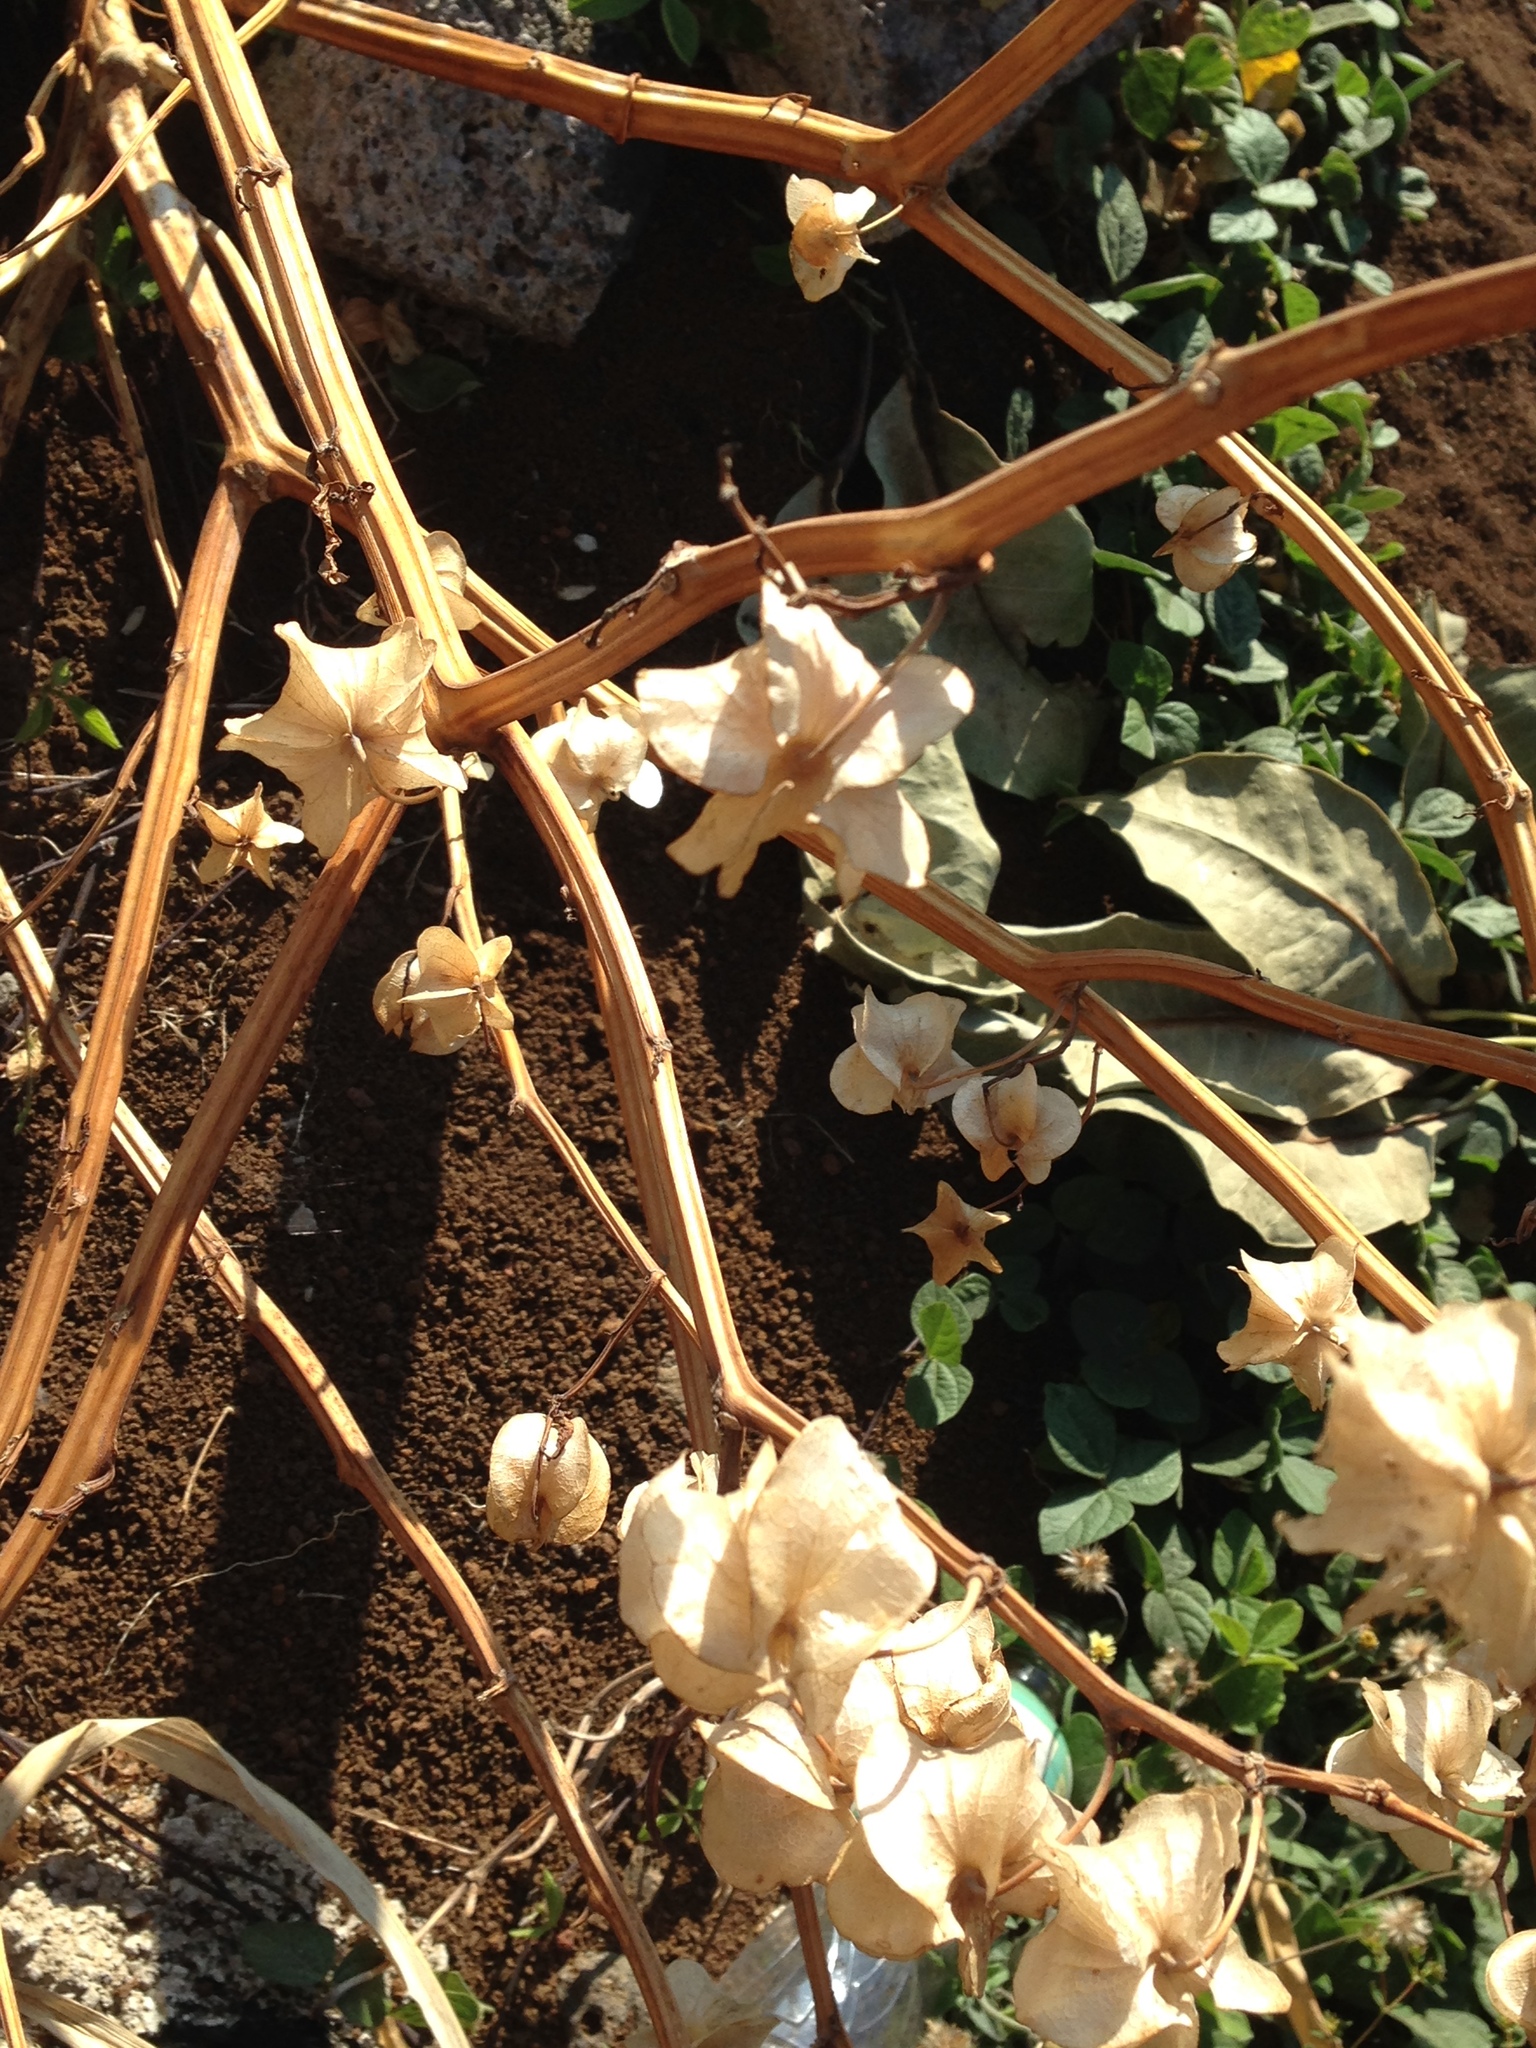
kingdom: Plantae
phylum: Tracheophyta
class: Magnoliopsida
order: Solanales
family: Solanaceae
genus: Nicandra
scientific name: Nicandra physalodes
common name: Apple-of-peru
